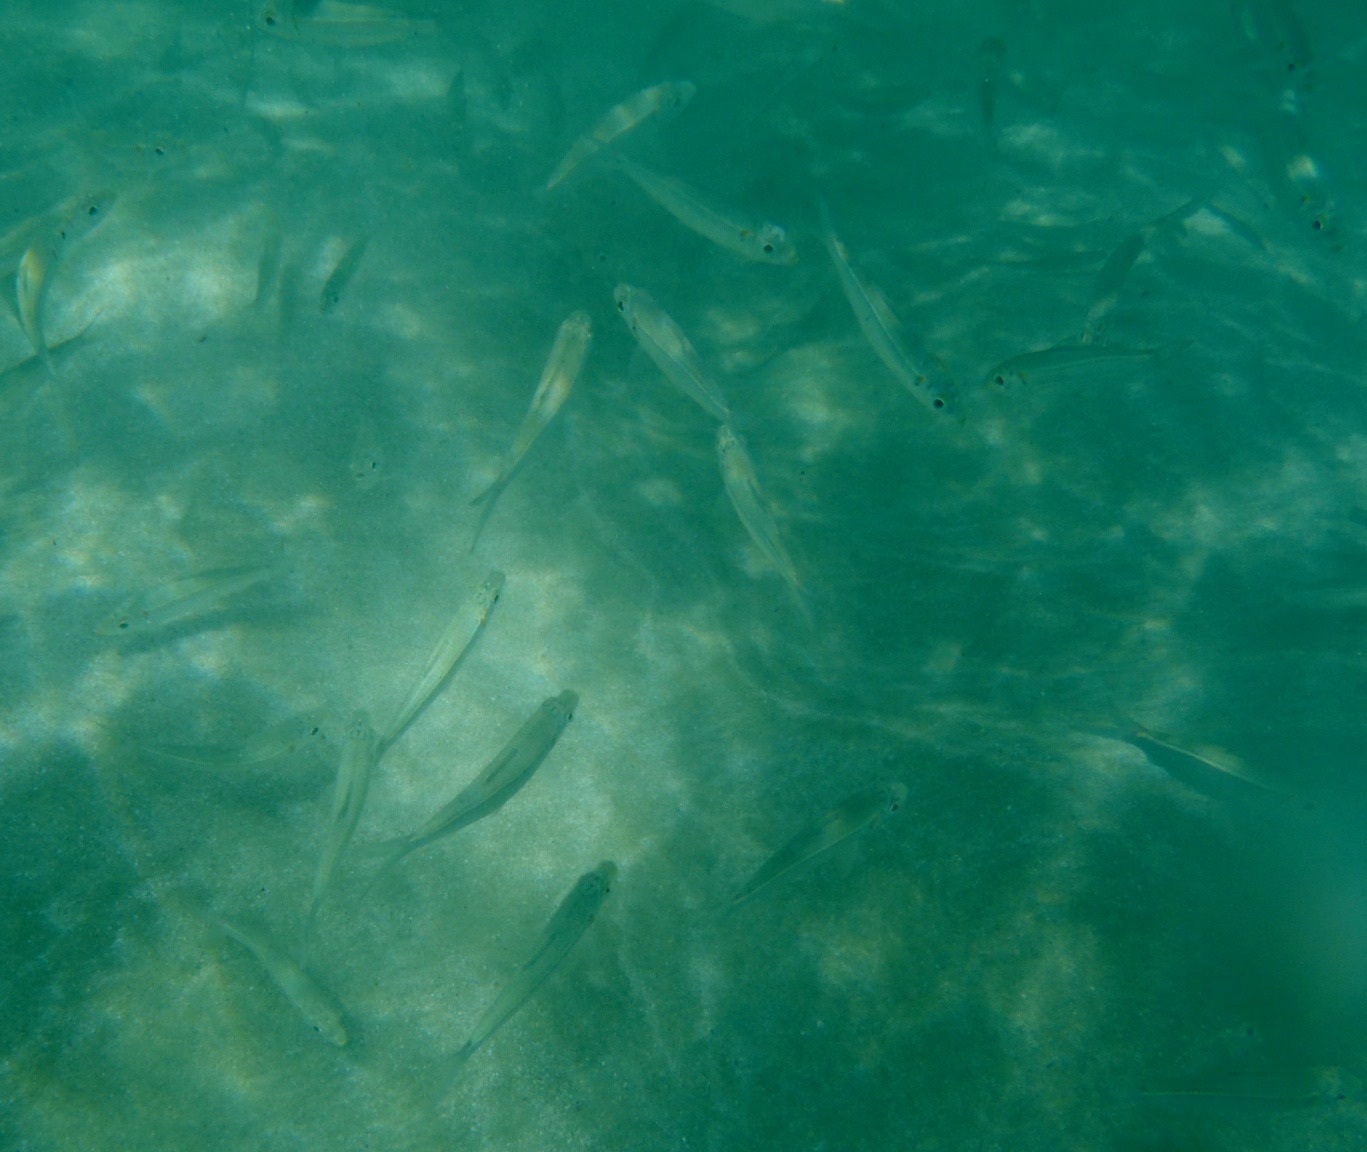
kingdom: Animalia
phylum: Chordata
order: Clupeiformes
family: Clupeidae
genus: Harengula
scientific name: Harengula humeralis
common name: Red-ear pilchard
